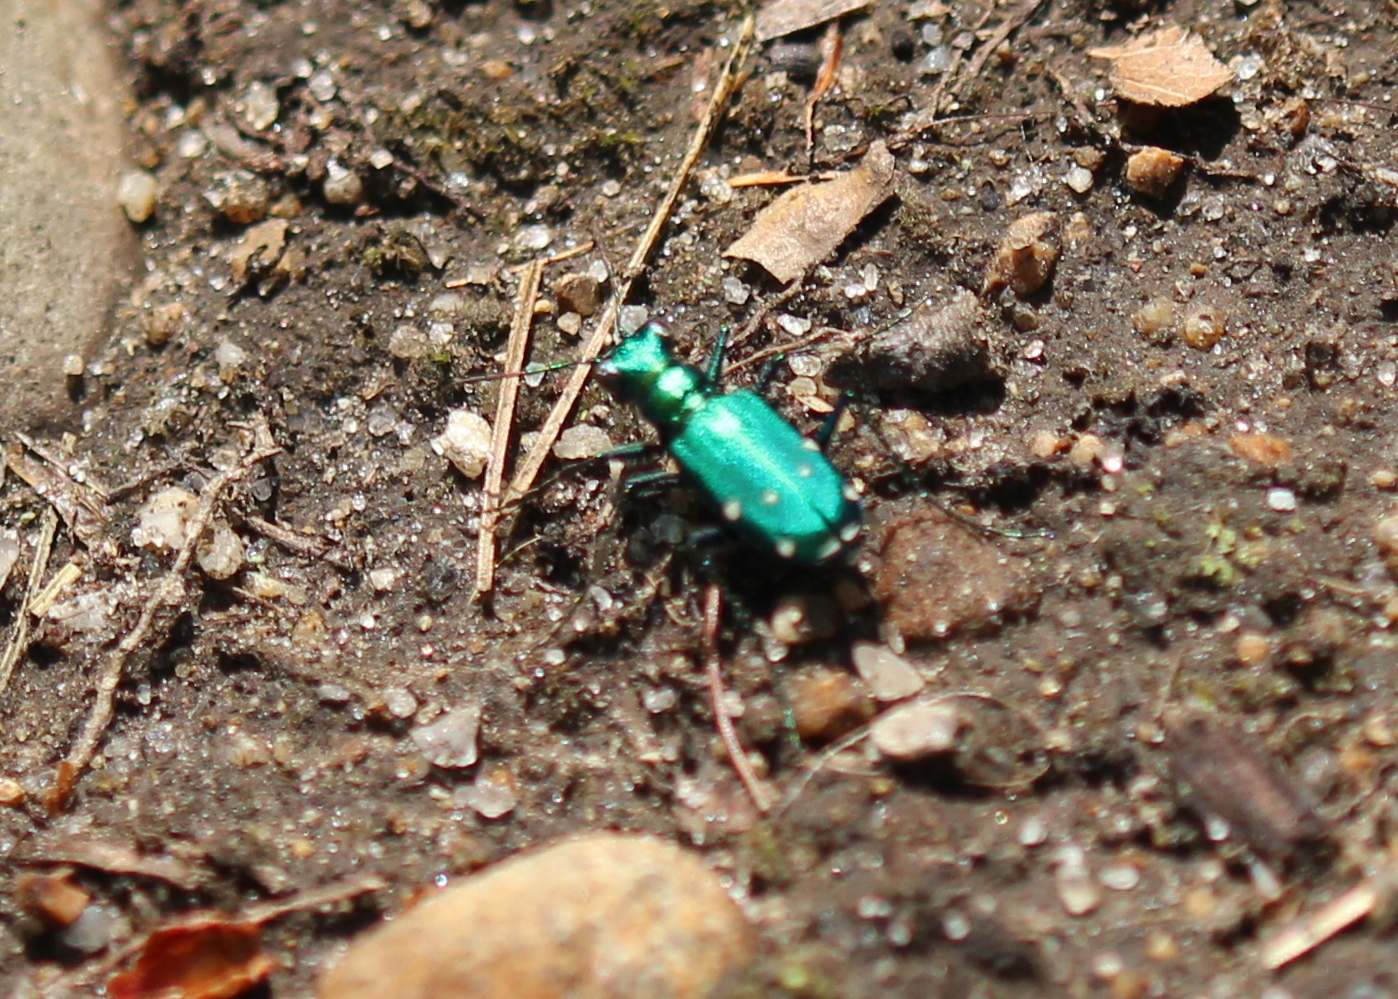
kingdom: Animalia
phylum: Arthropoda
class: Insecta
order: Coleoptera
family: Carabidae
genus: Cicindela
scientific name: Cicindela sexguttata
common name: Six-spotted tiger beetle
